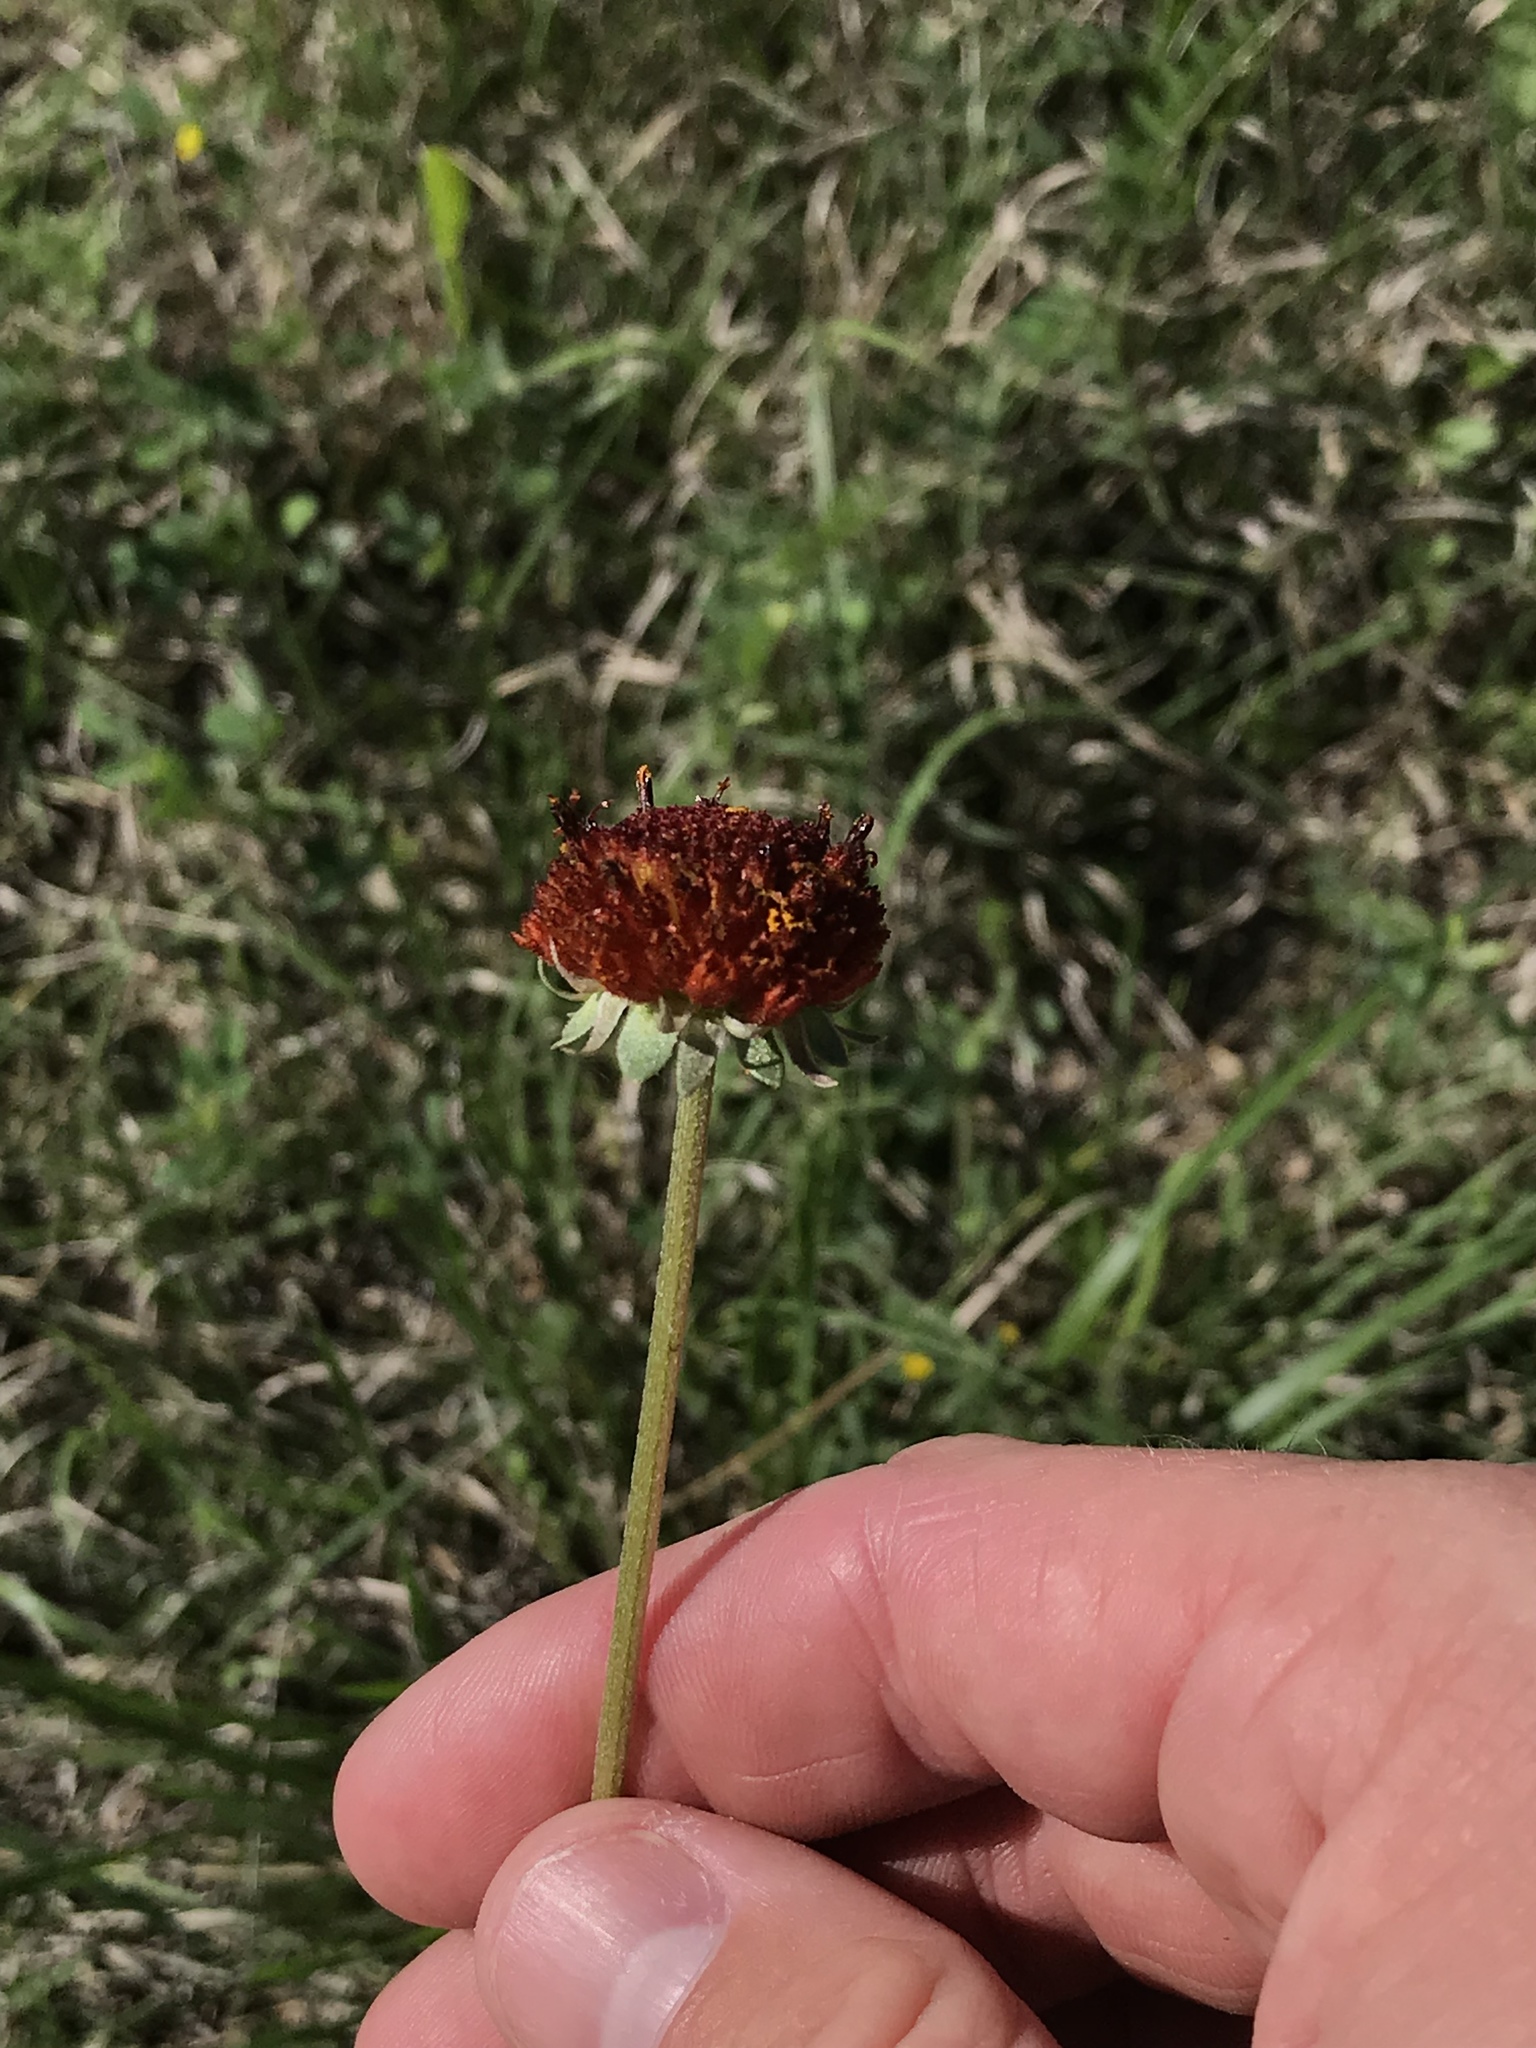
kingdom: Plantae
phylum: Tracheophyta
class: Magnoliopsida
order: Asterales
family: Asteraceae
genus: Gaillardia
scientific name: Gaillardia suavis
